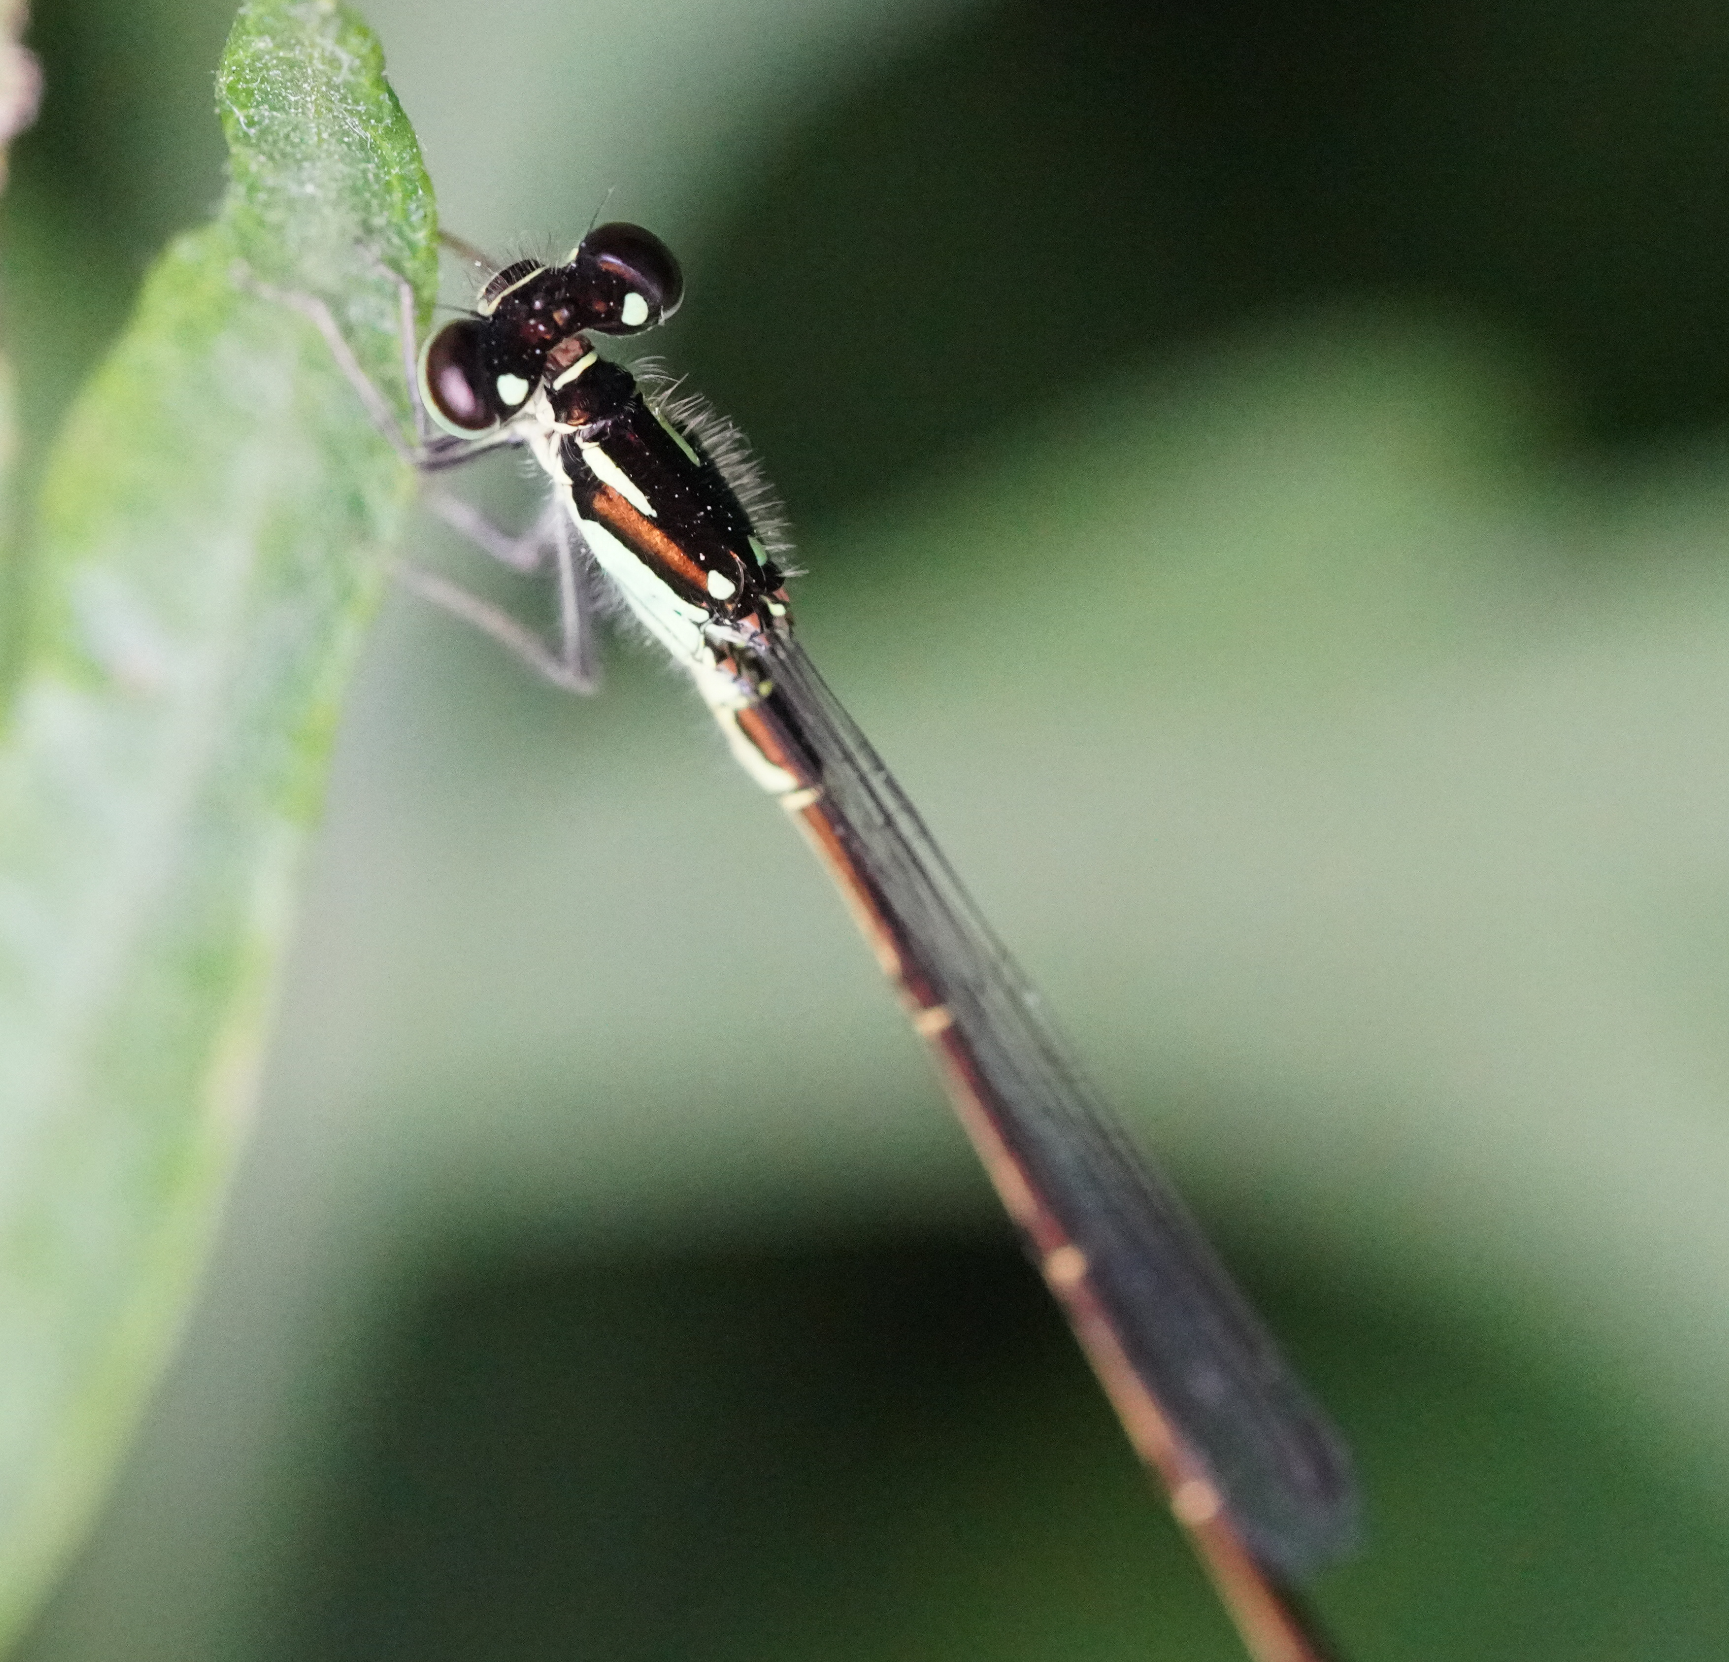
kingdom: Animalia
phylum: Arthropoda
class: Insecta
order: Odonata
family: Coenagrionidae
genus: Ischnura
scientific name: Ischnura posita
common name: Fragile forktail
